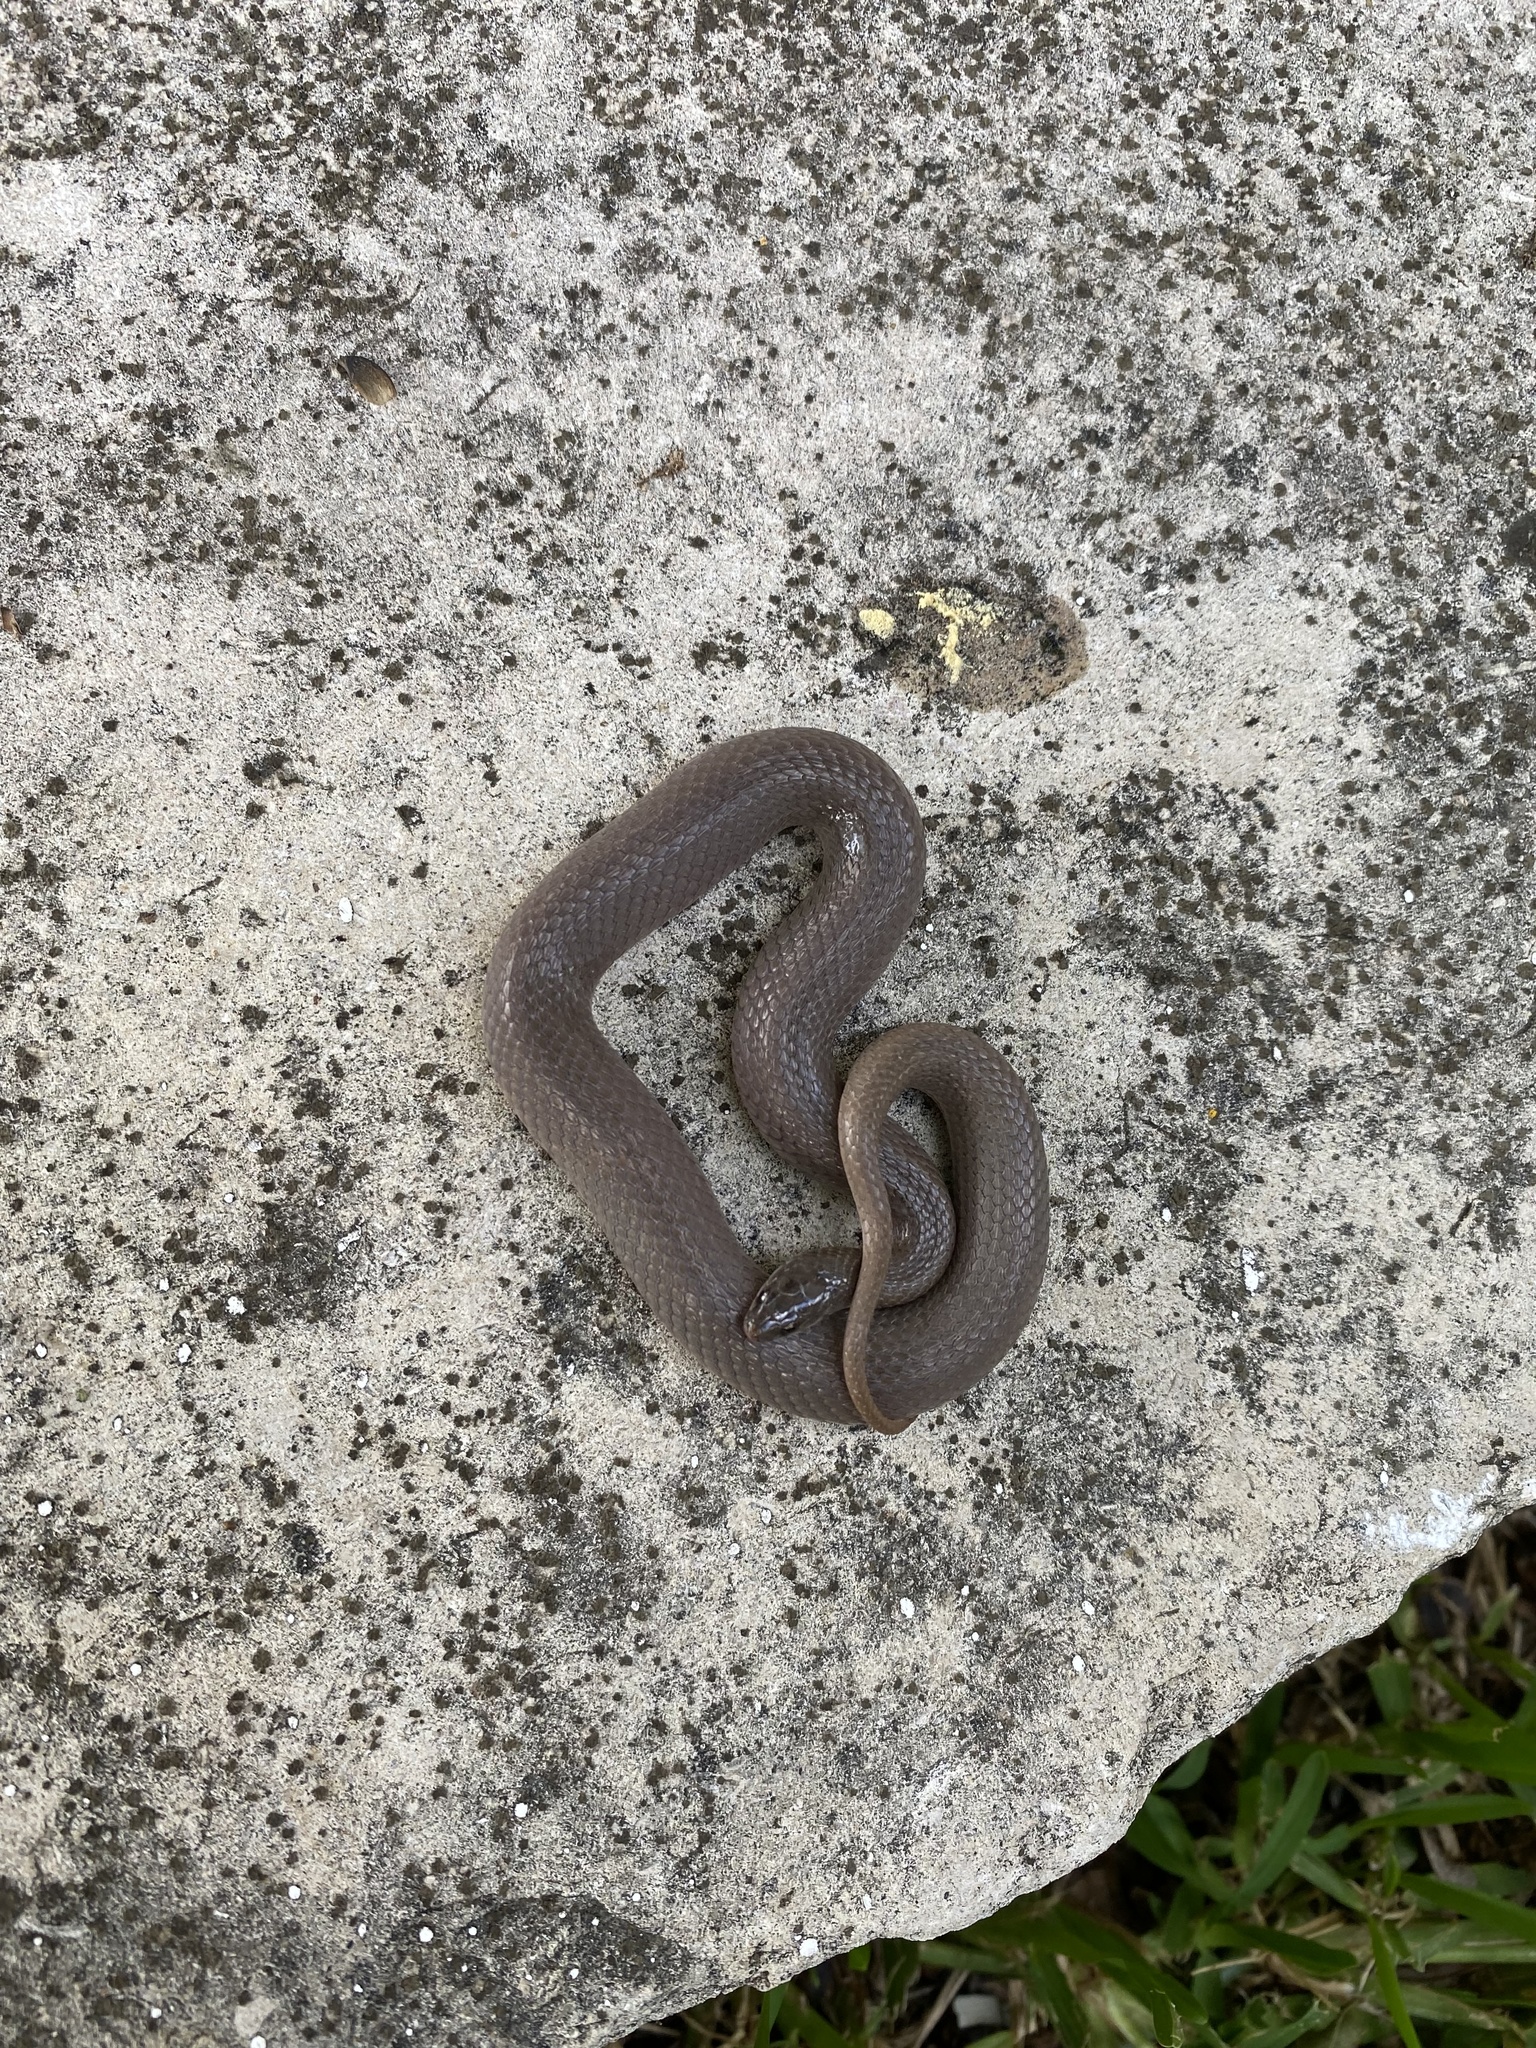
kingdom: Animalia
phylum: Chordata
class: Squamata
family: Colubridae
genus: Haldea
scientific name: Haldea striatula
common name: Rough earth snake
